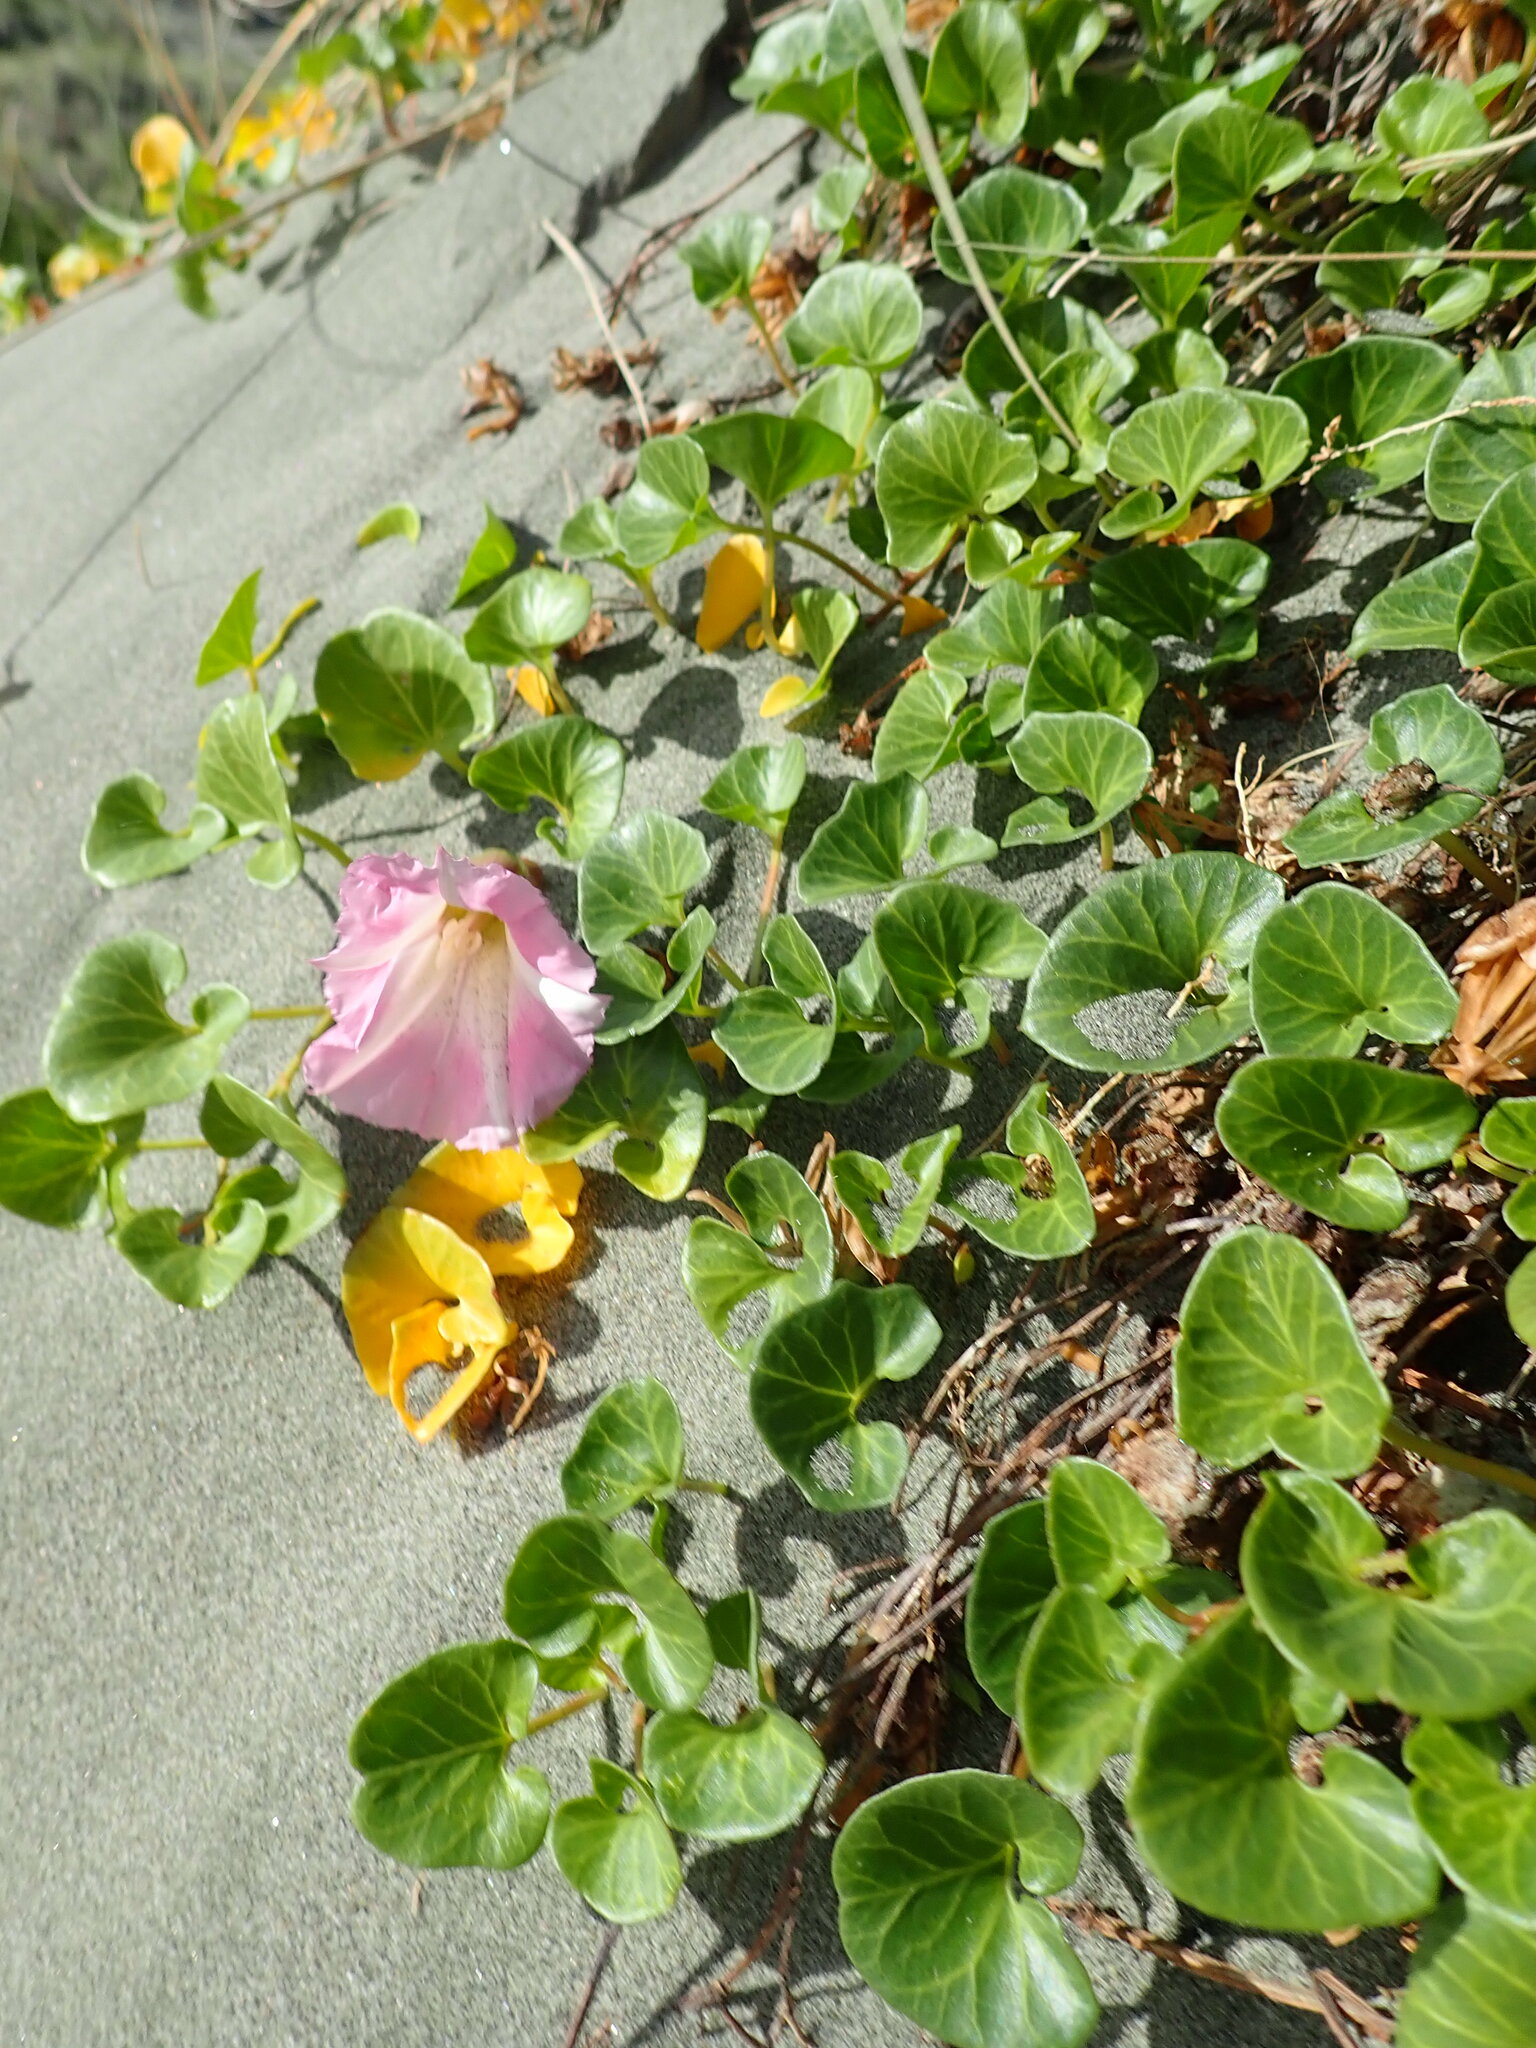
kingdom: Plantae
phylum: Tracheophyta
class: Magnoliopsida
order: Solanales
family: Convolvulaceae
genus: Calystegia
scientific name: Calystegia soldanella
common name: Sea bindweed
